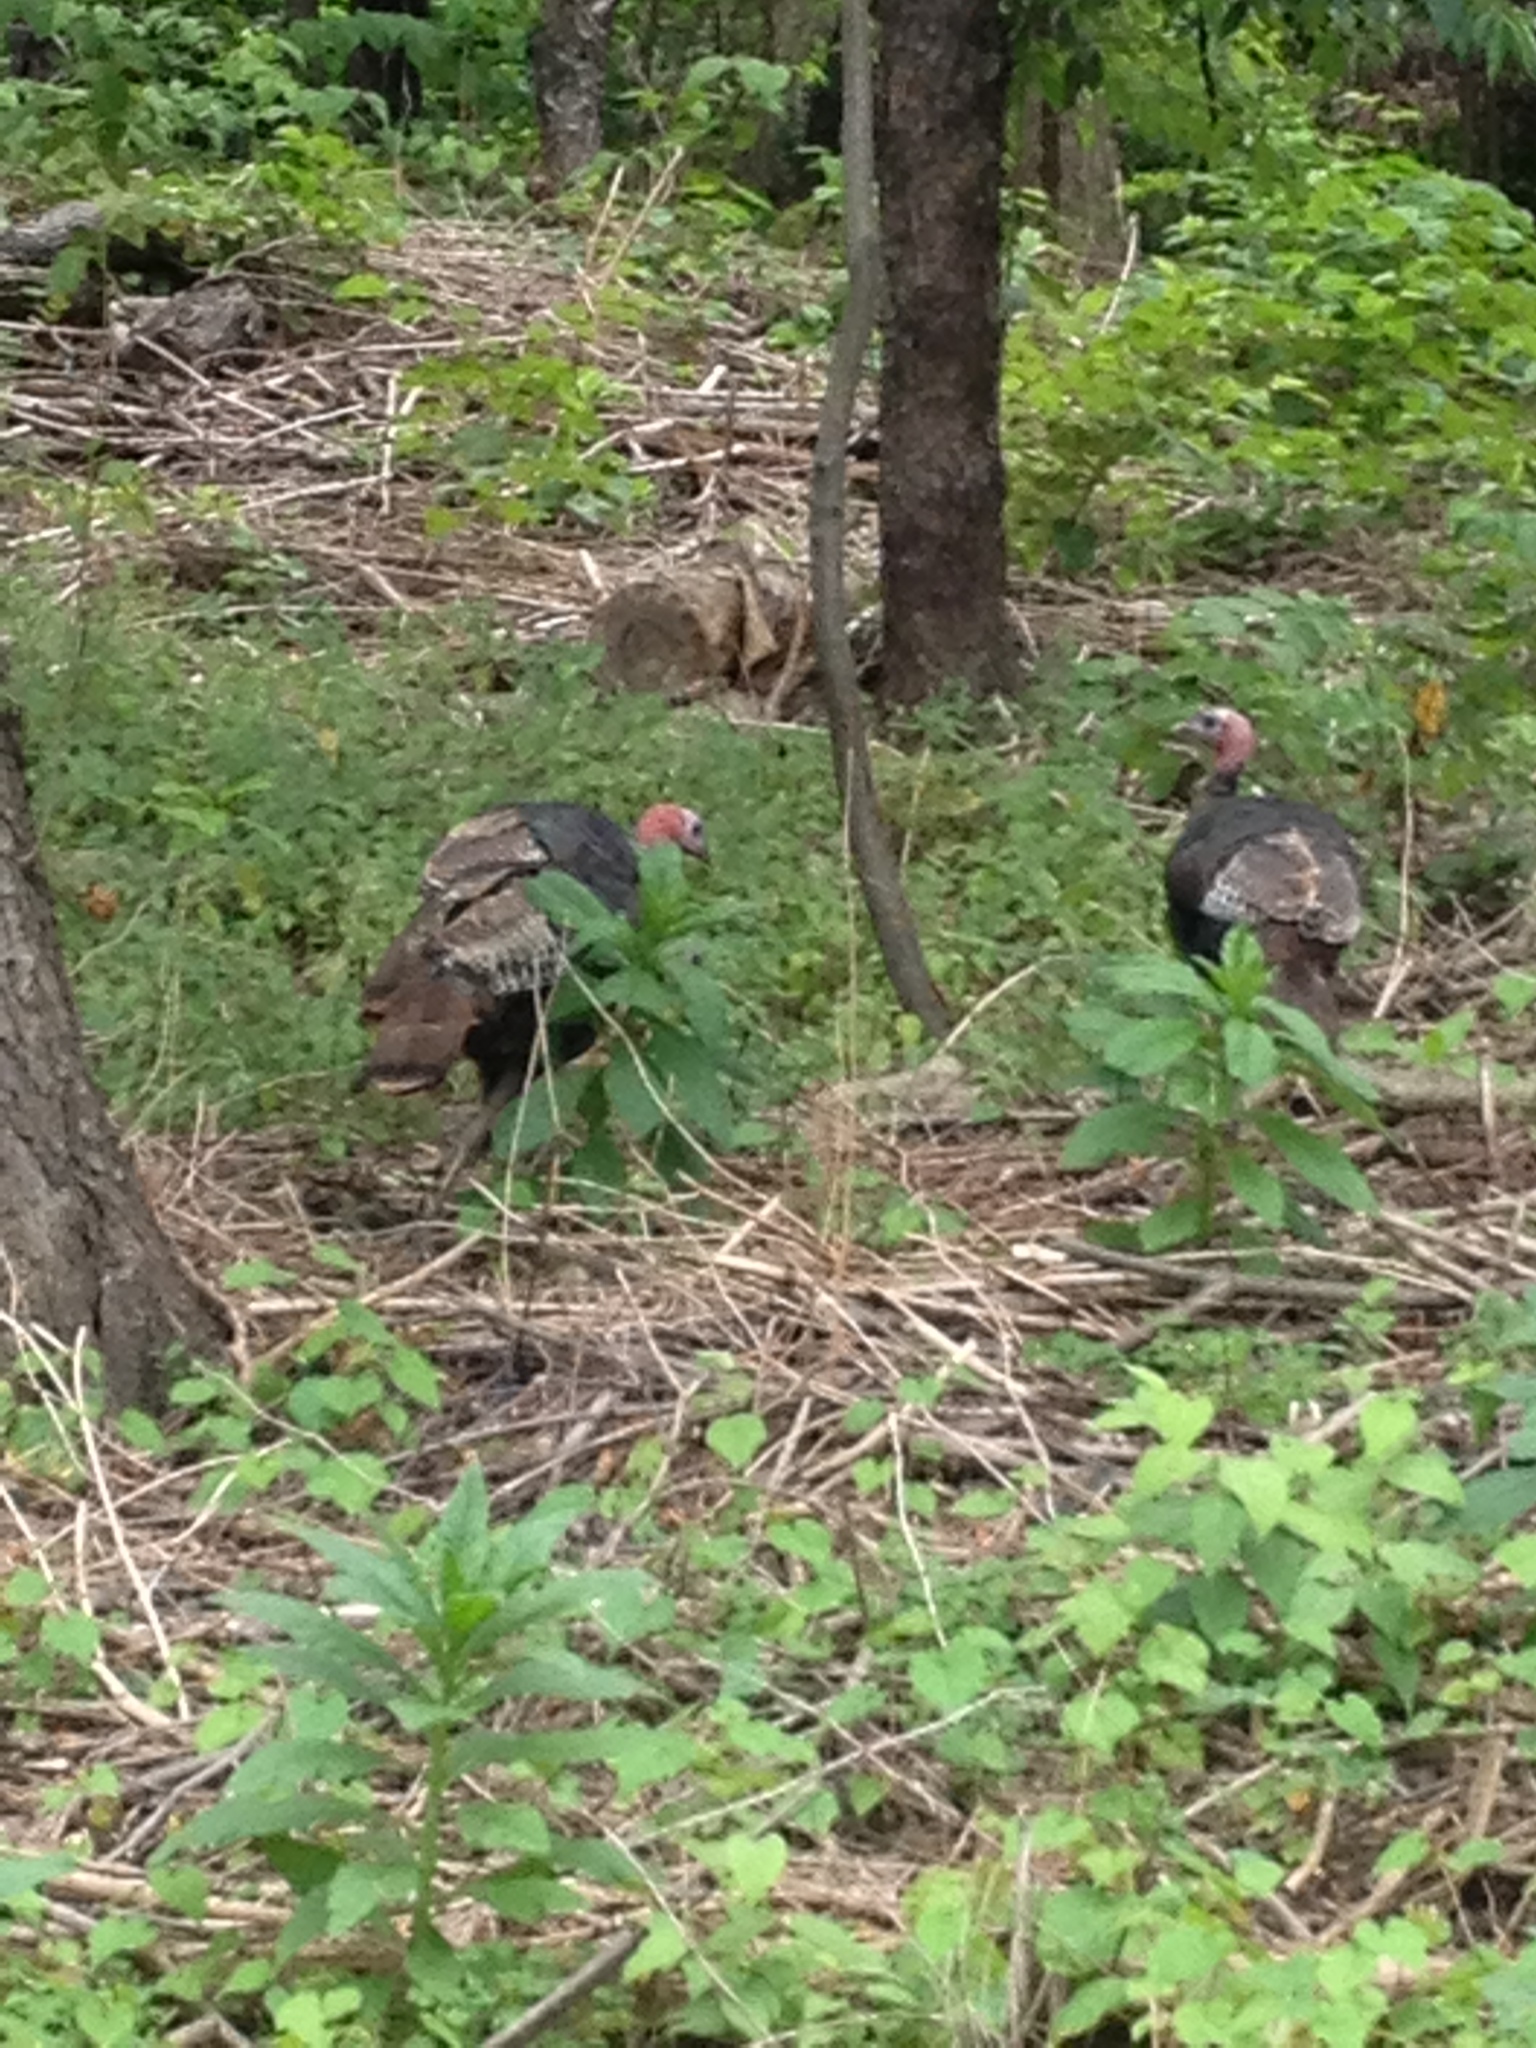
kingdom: Animalia
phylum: Chordata
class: Aves
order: Galliformes
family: Phasianidae
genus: Meleagris
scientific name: Meleagris gallopavo
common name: Wild turkey
